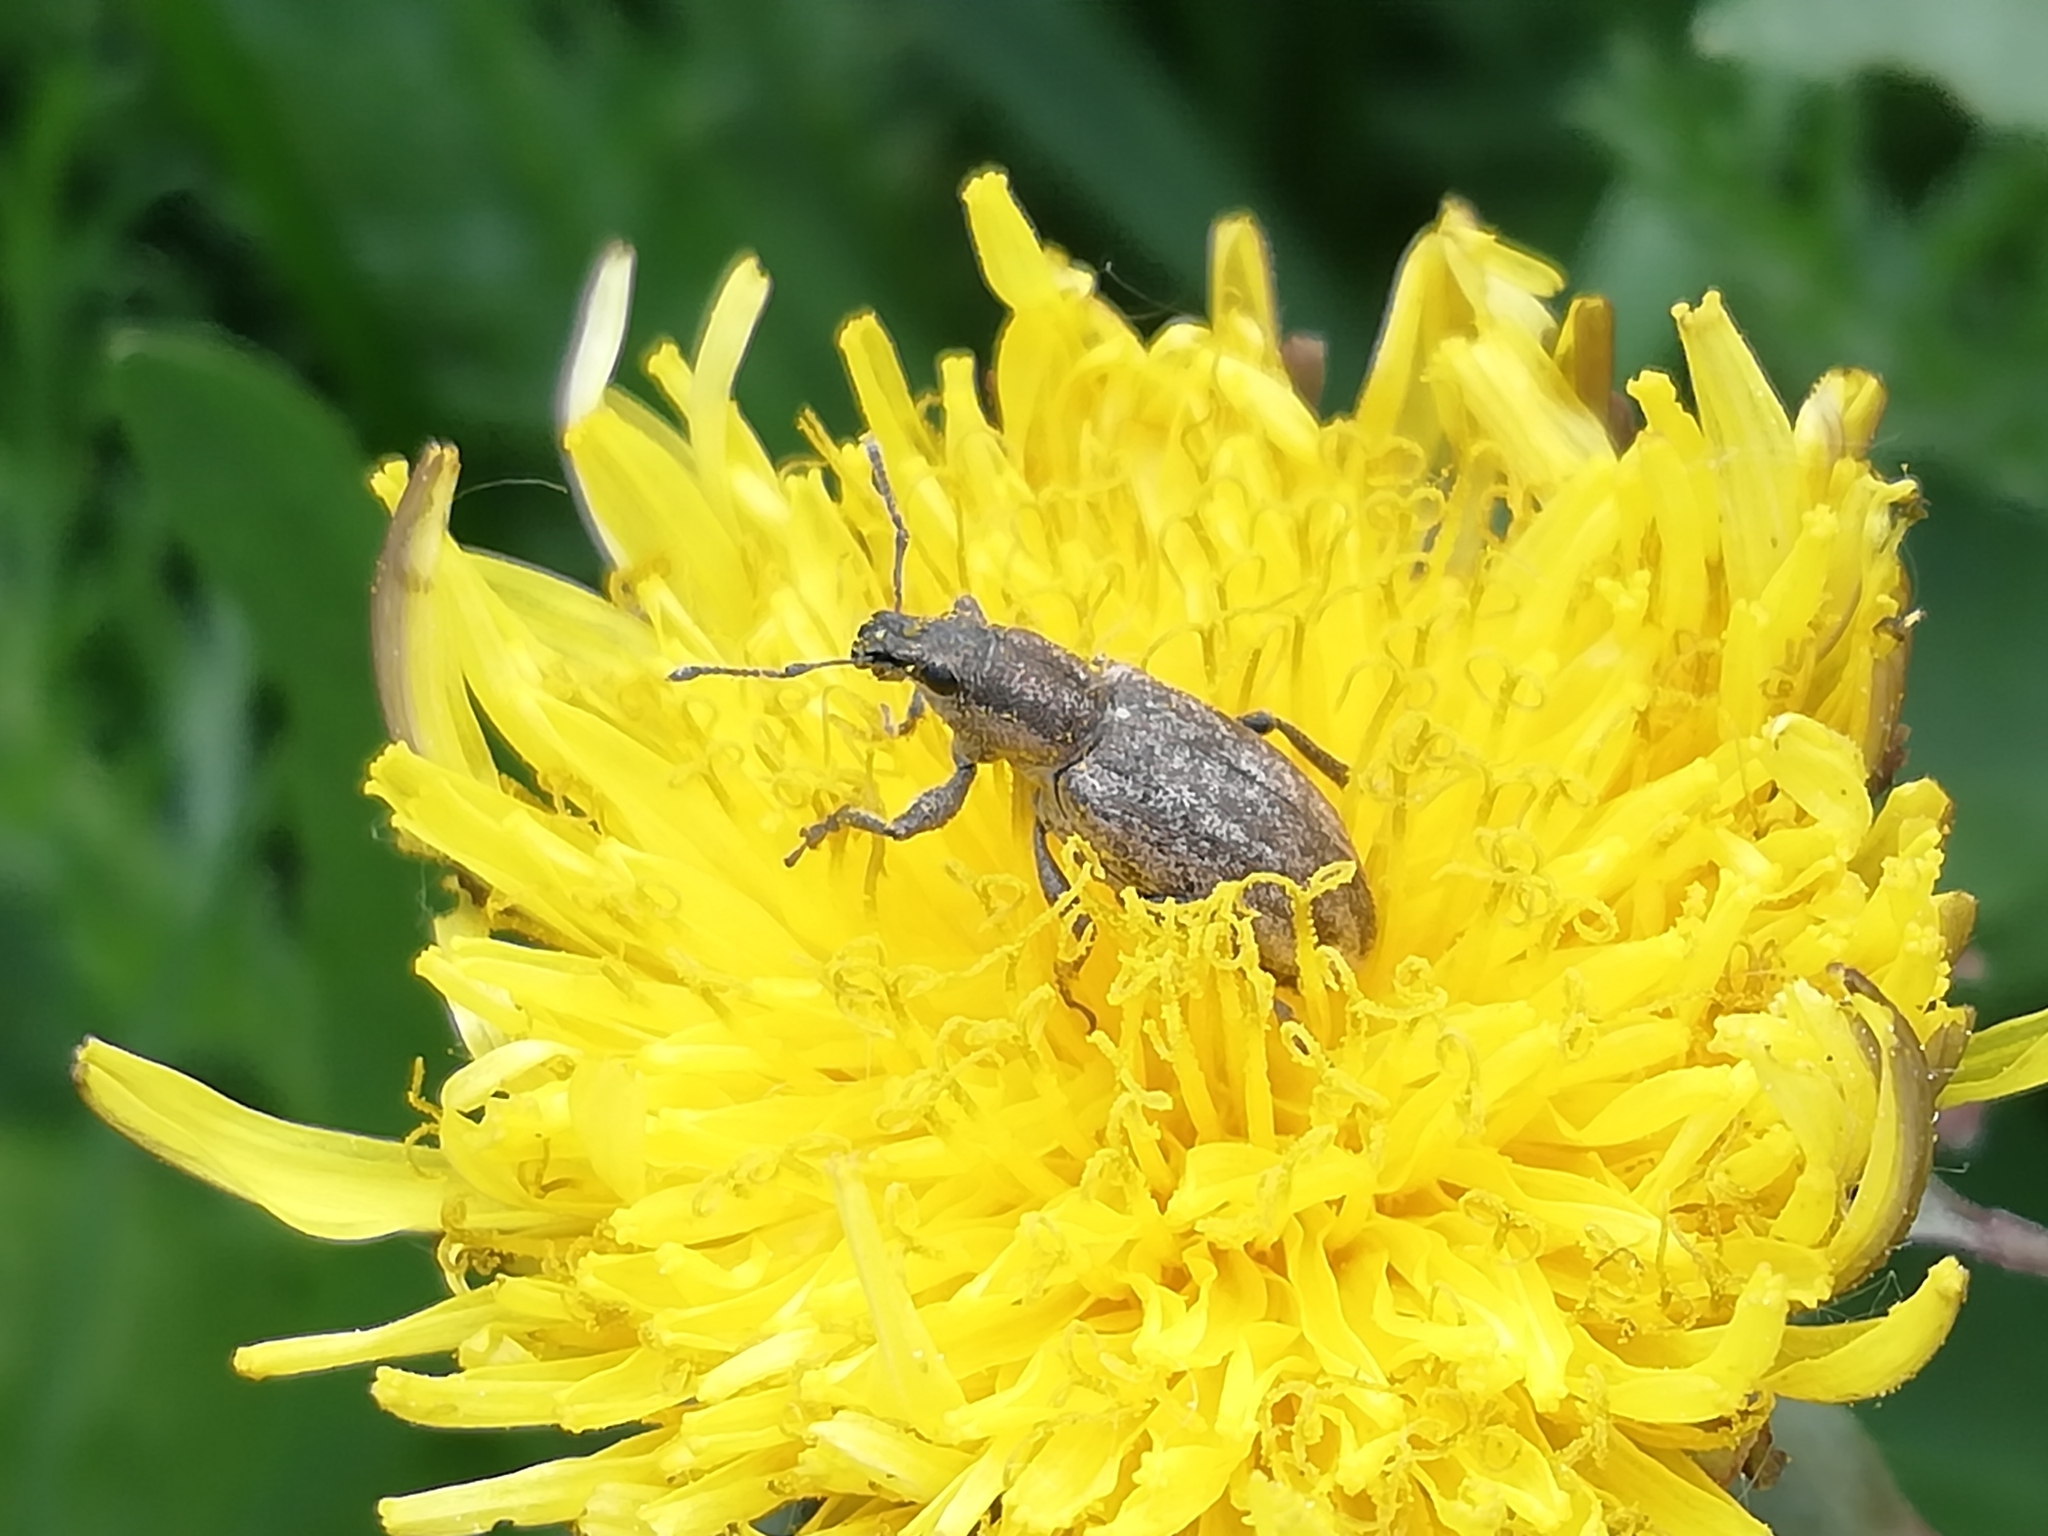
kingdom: Animalia
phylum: Arthropoda
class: Insecta
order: Coleoptera
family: Curculionidae
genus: Tanymecus
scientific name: Tanymecus palliatus
